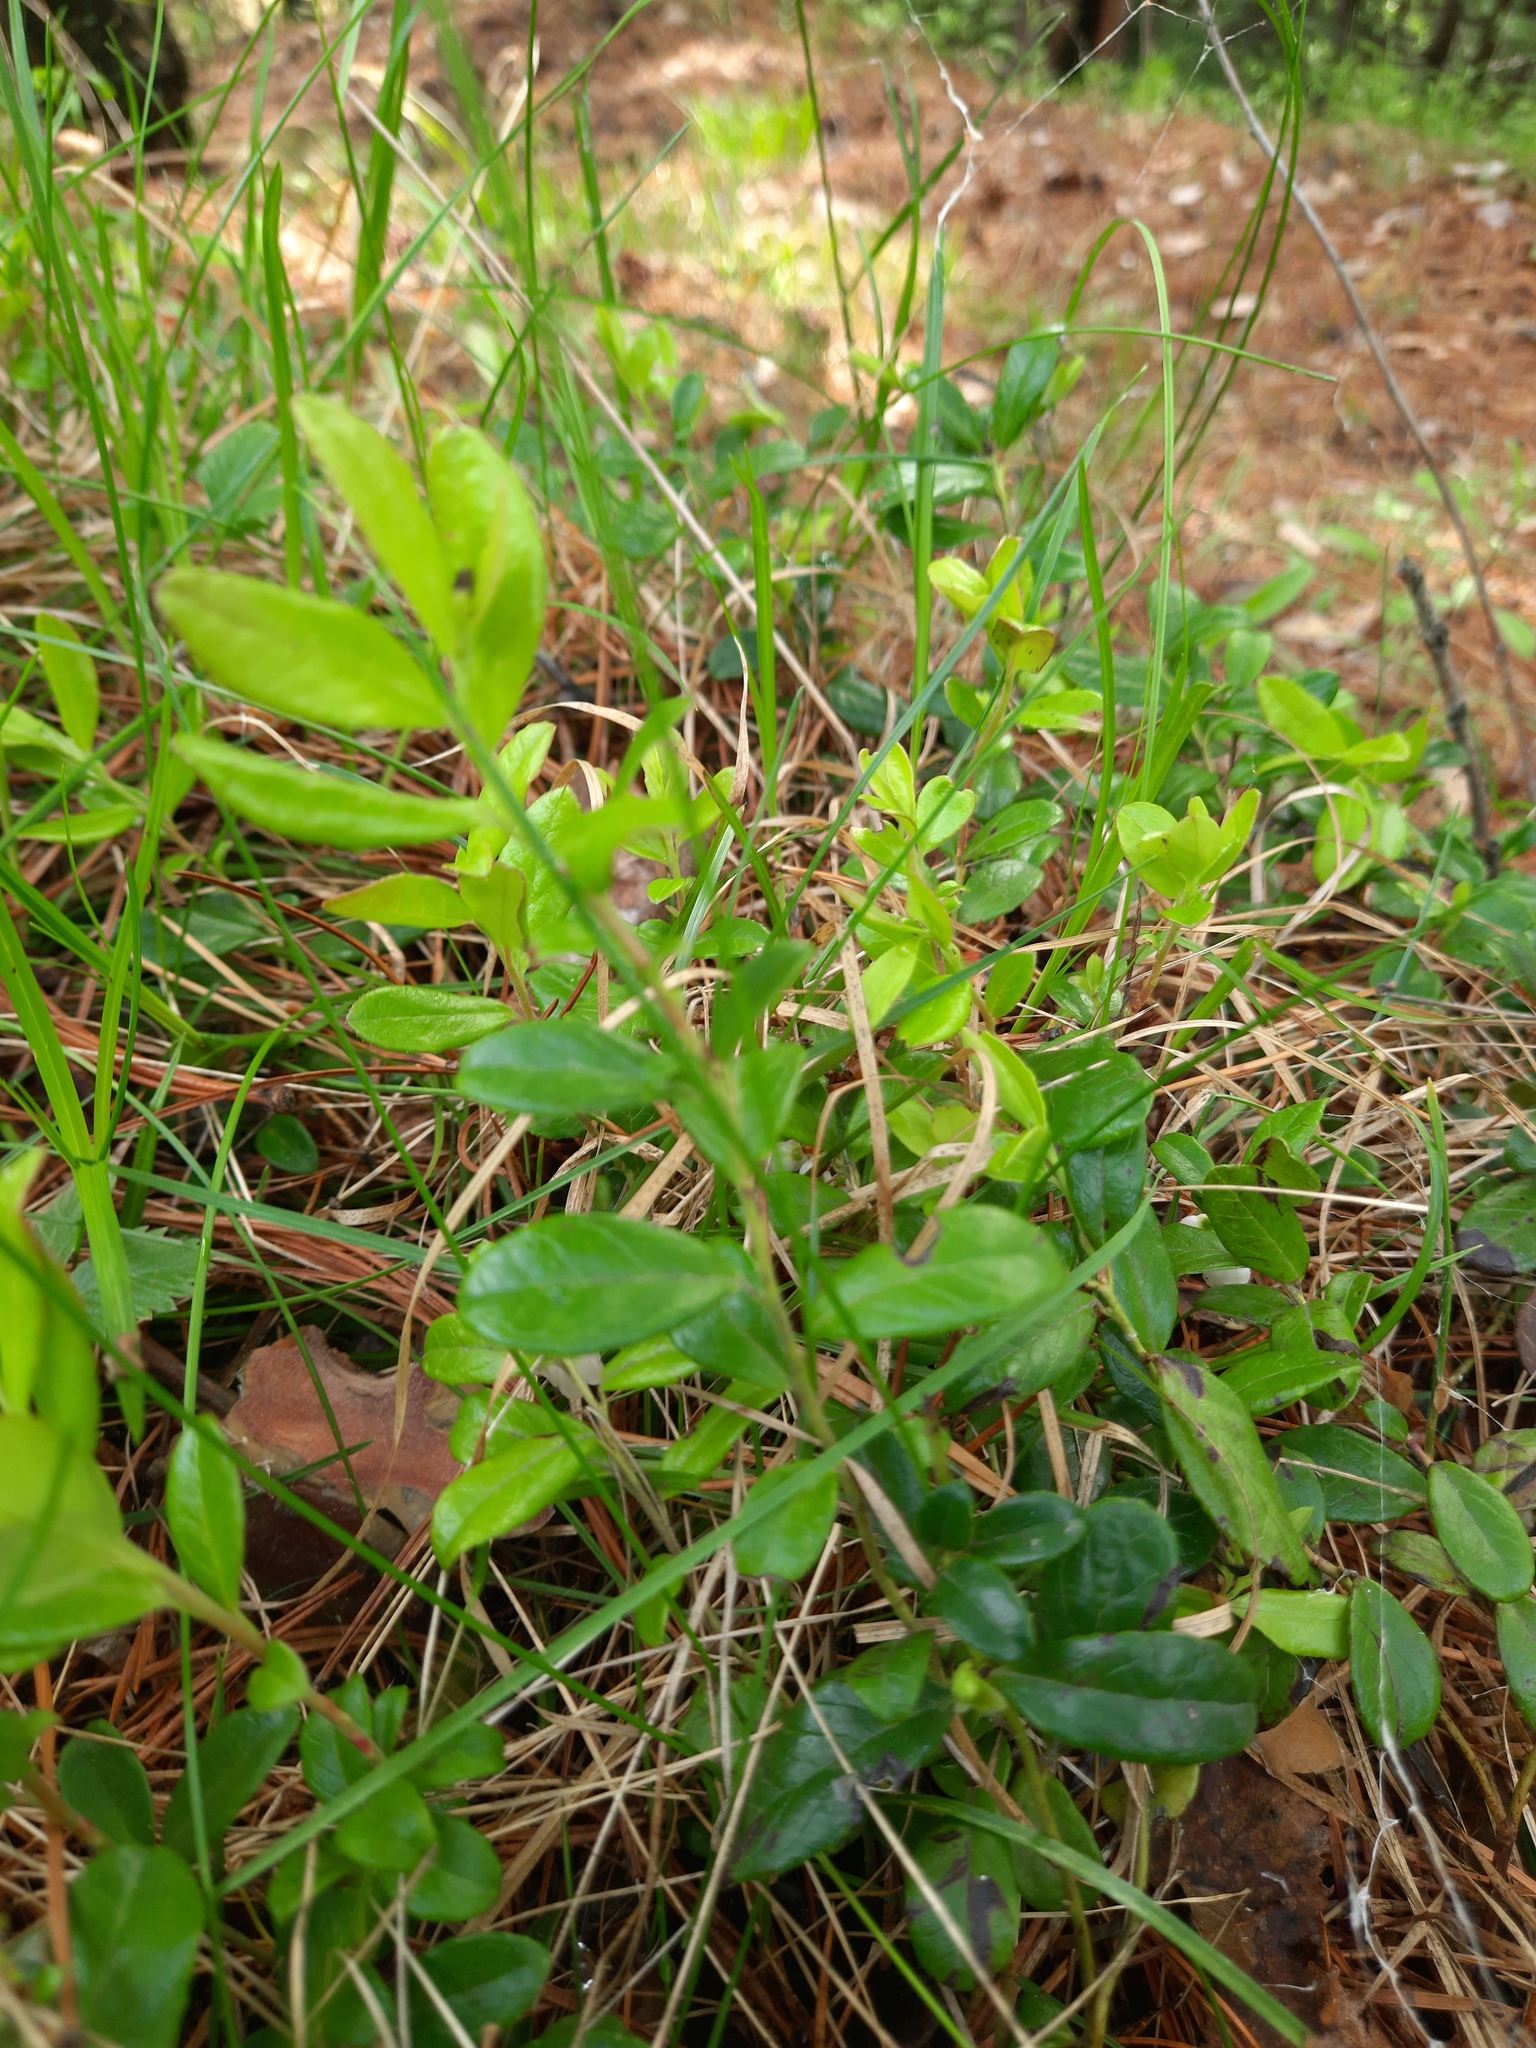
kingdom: Plantae
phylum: Tracheophyta
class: Magnoliopsida
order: Ericales
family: Ericaceae
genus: Vaccinium
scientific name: Vaccinium vitis-idaea
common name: Cowberry
